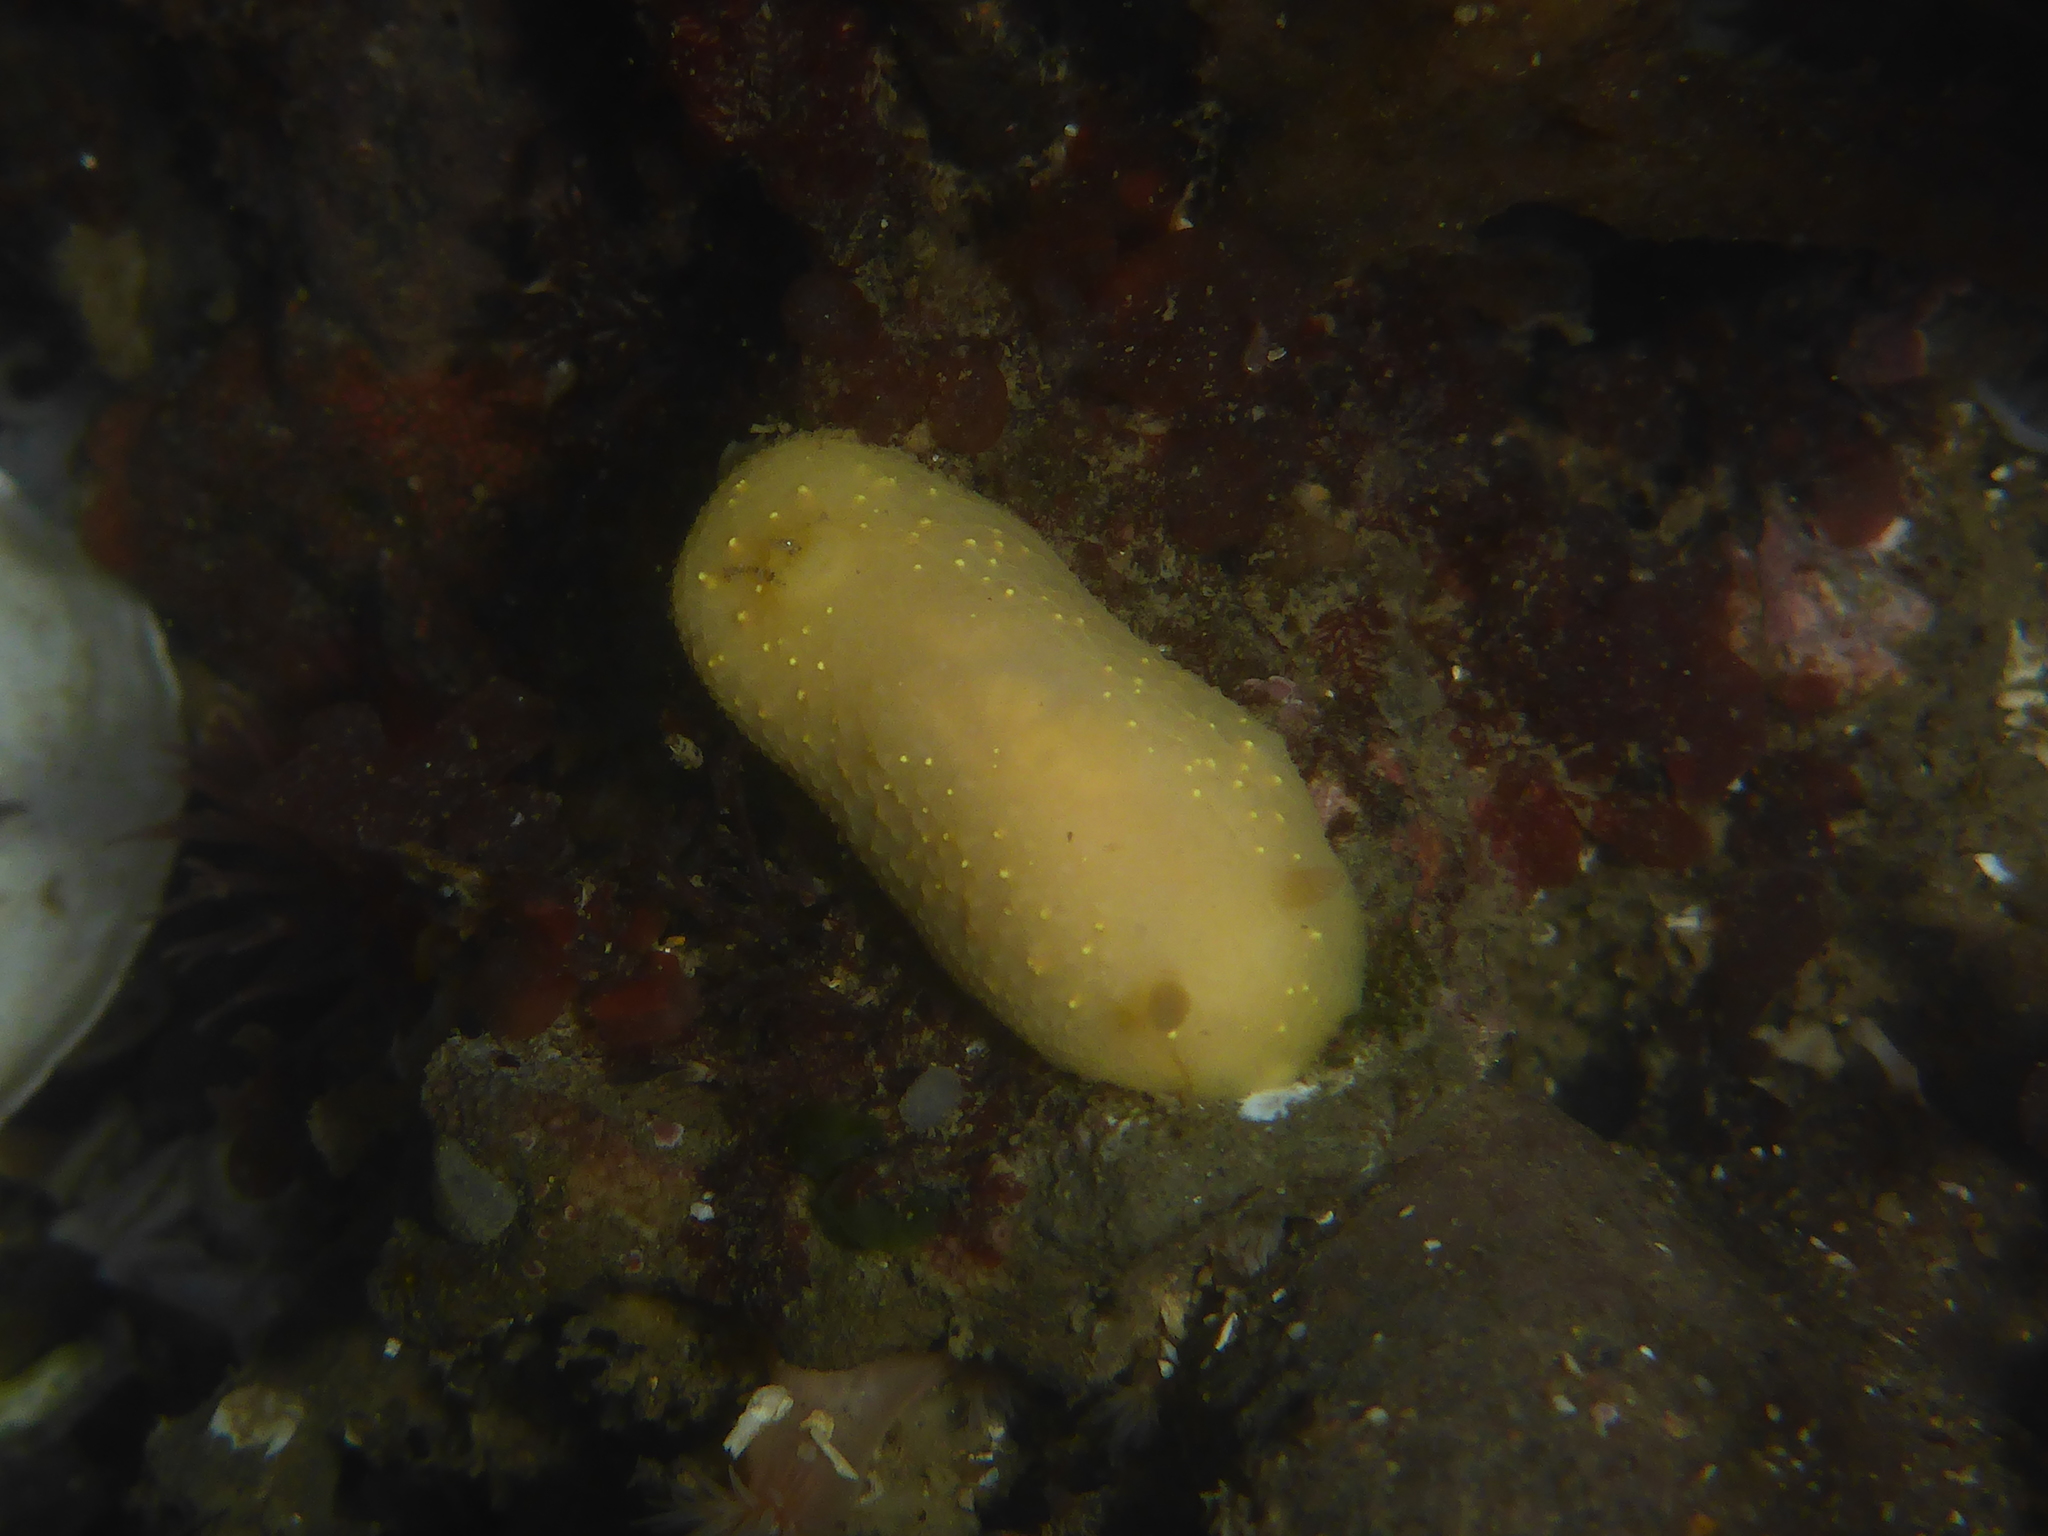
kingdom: Animalia
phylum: Mollusca
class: Gastropoda
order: Nudibranchia
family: Cadlinidae
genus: Cadlina
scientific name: Cadlina modesta
